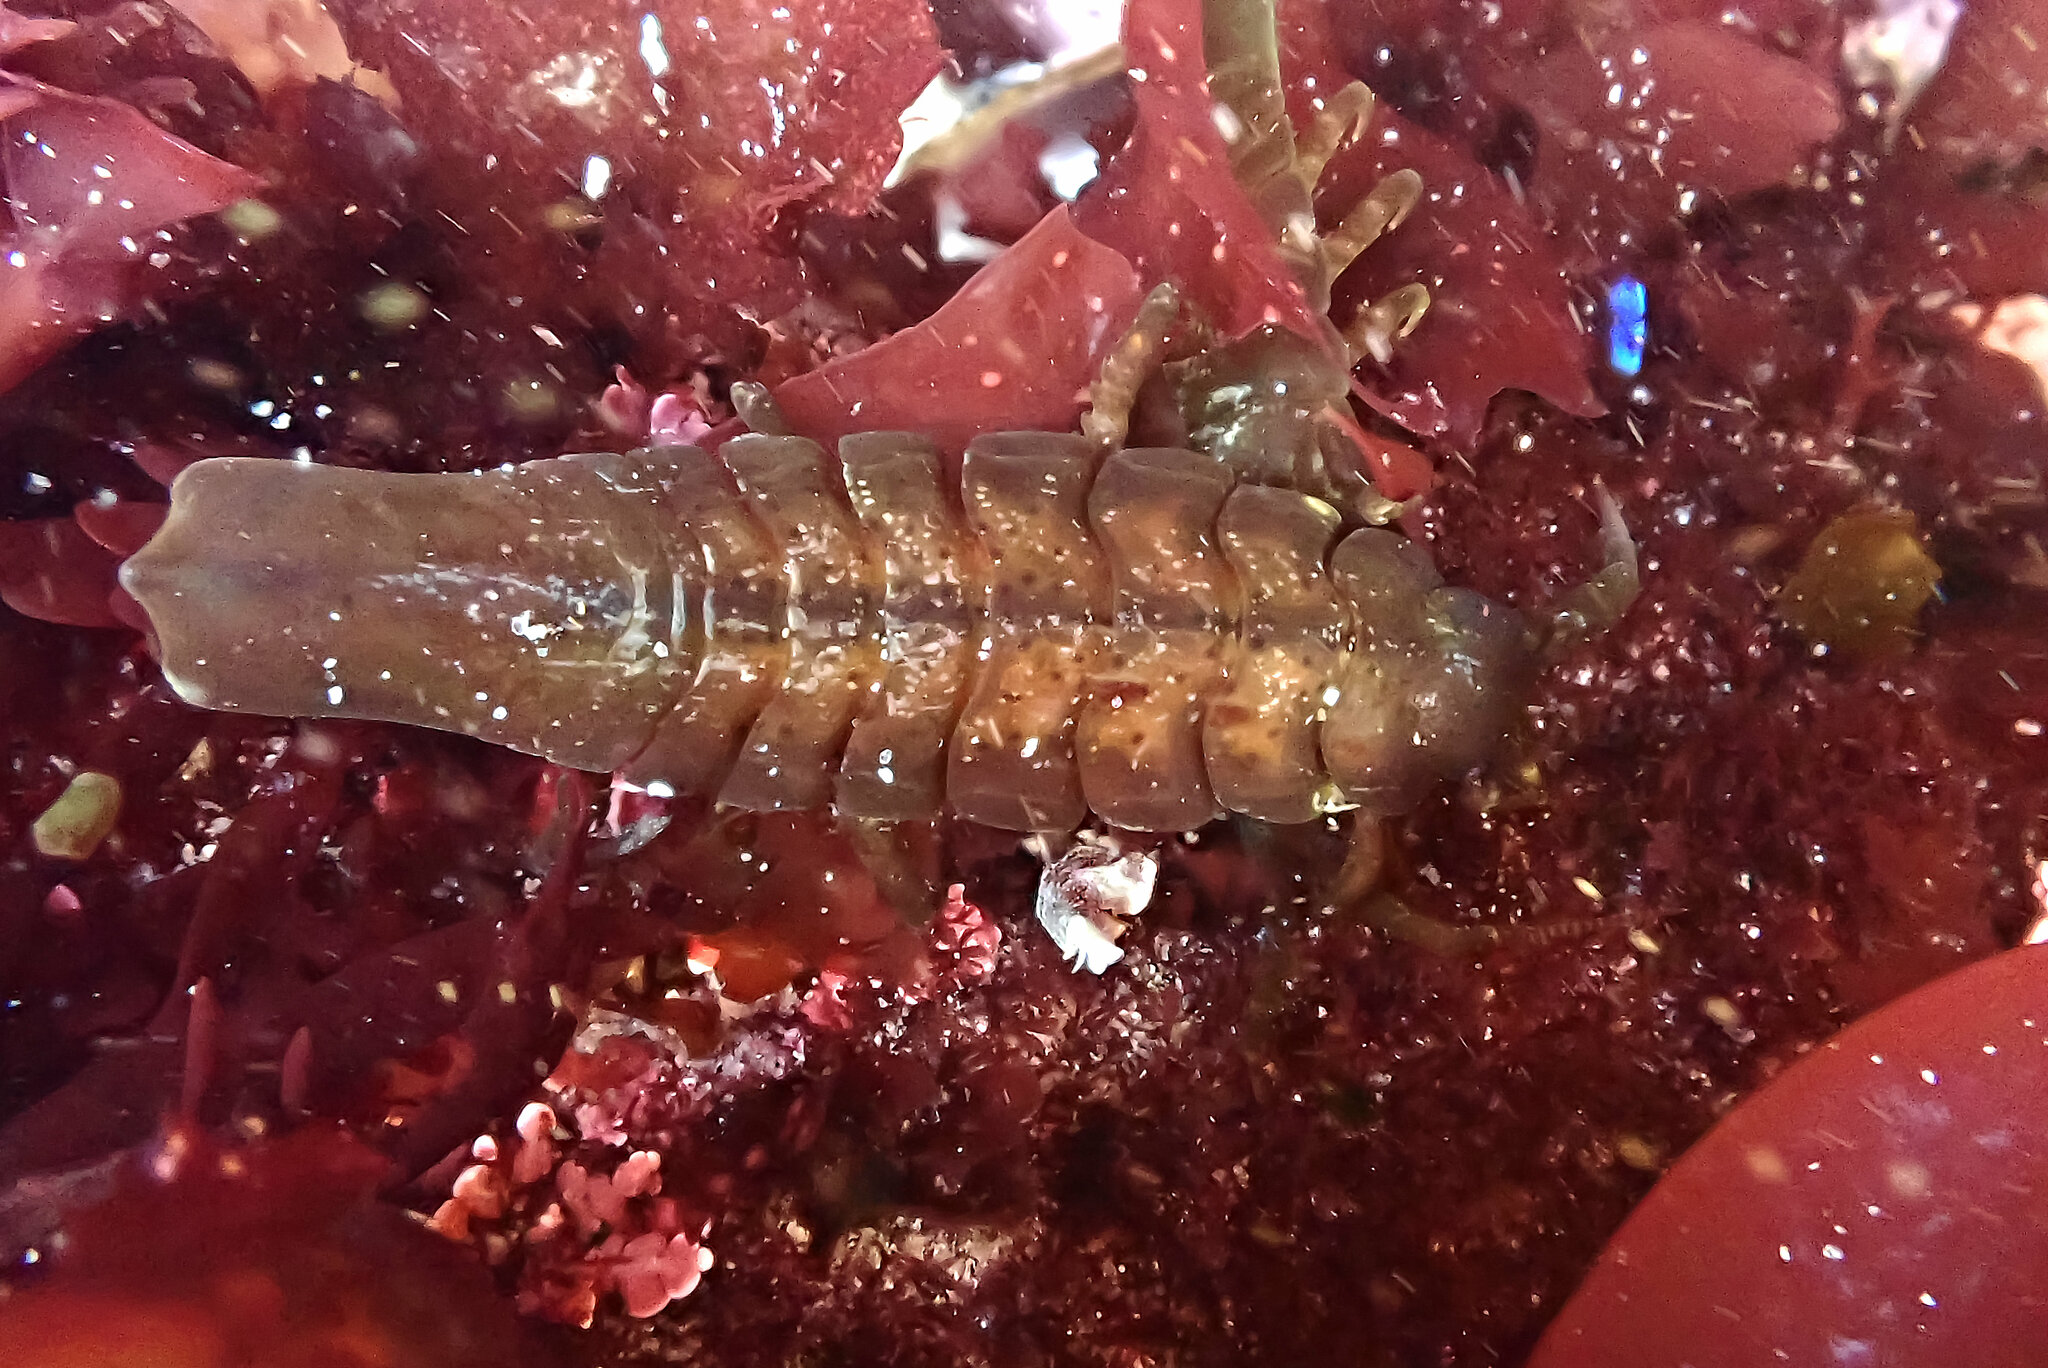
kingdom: Animalia
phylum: Arthropoda
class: Malacostraca
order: Isopoda
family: Idoteidae
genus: Pentidotea
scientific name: Pentidotea stenops
